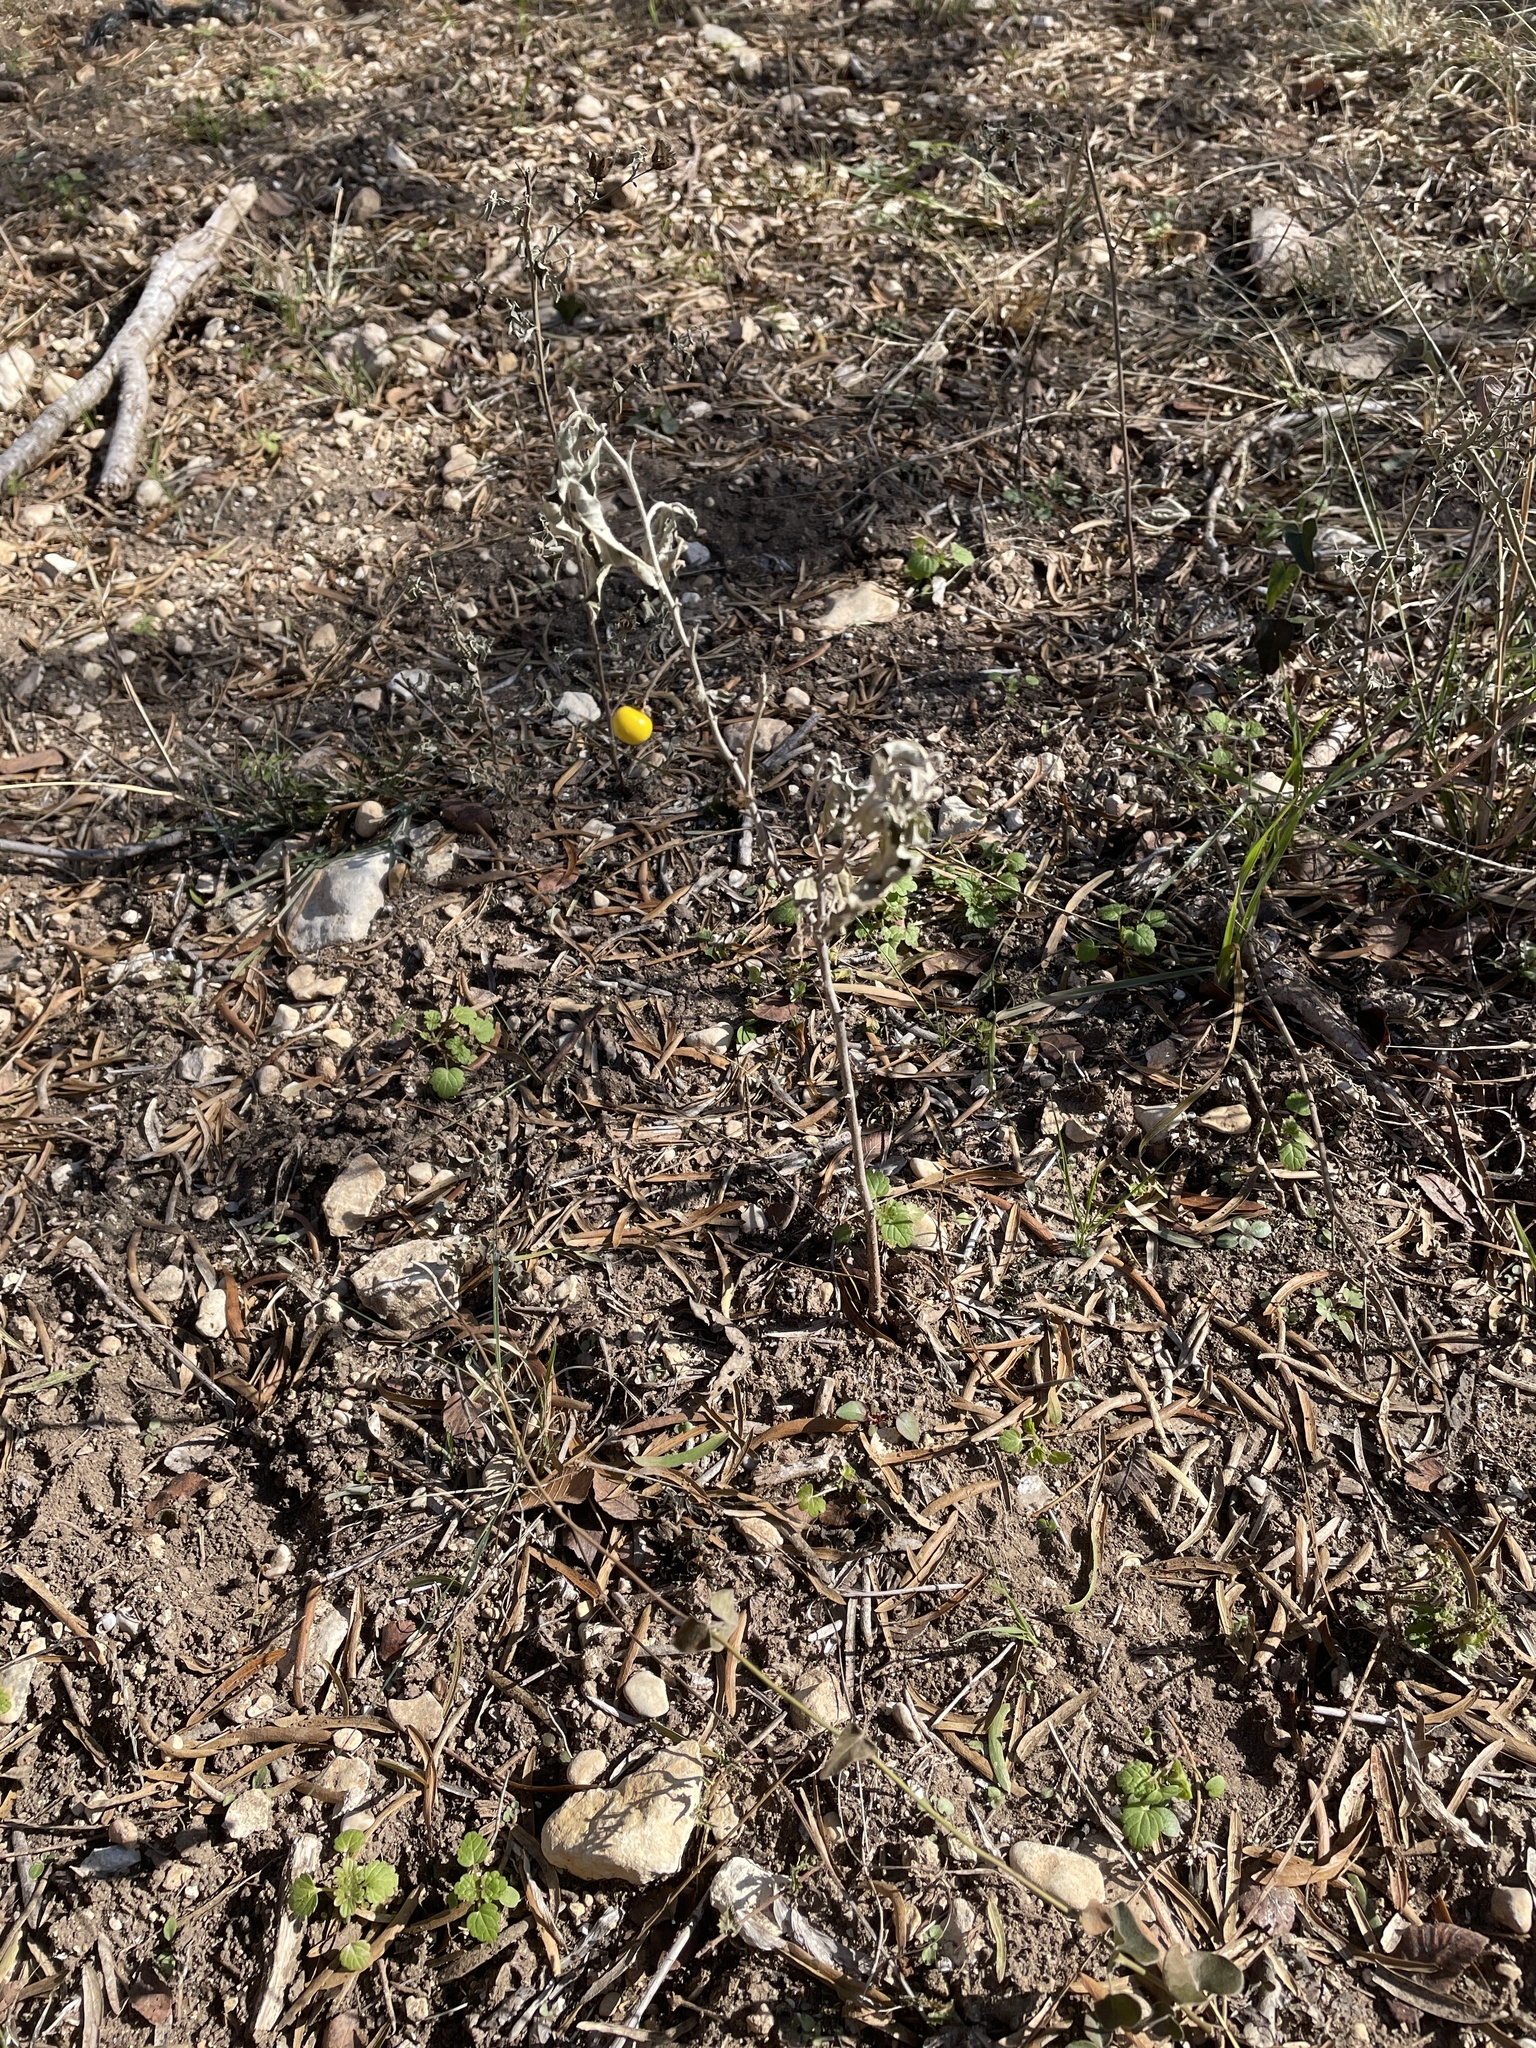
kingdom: Plantae
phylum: Tracheophyta
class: Magnoliopsida
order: Solanales
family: Solanaceae
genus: Solanum
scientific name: Solanum elaeagnifolium
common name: Silverleaf nightshade
